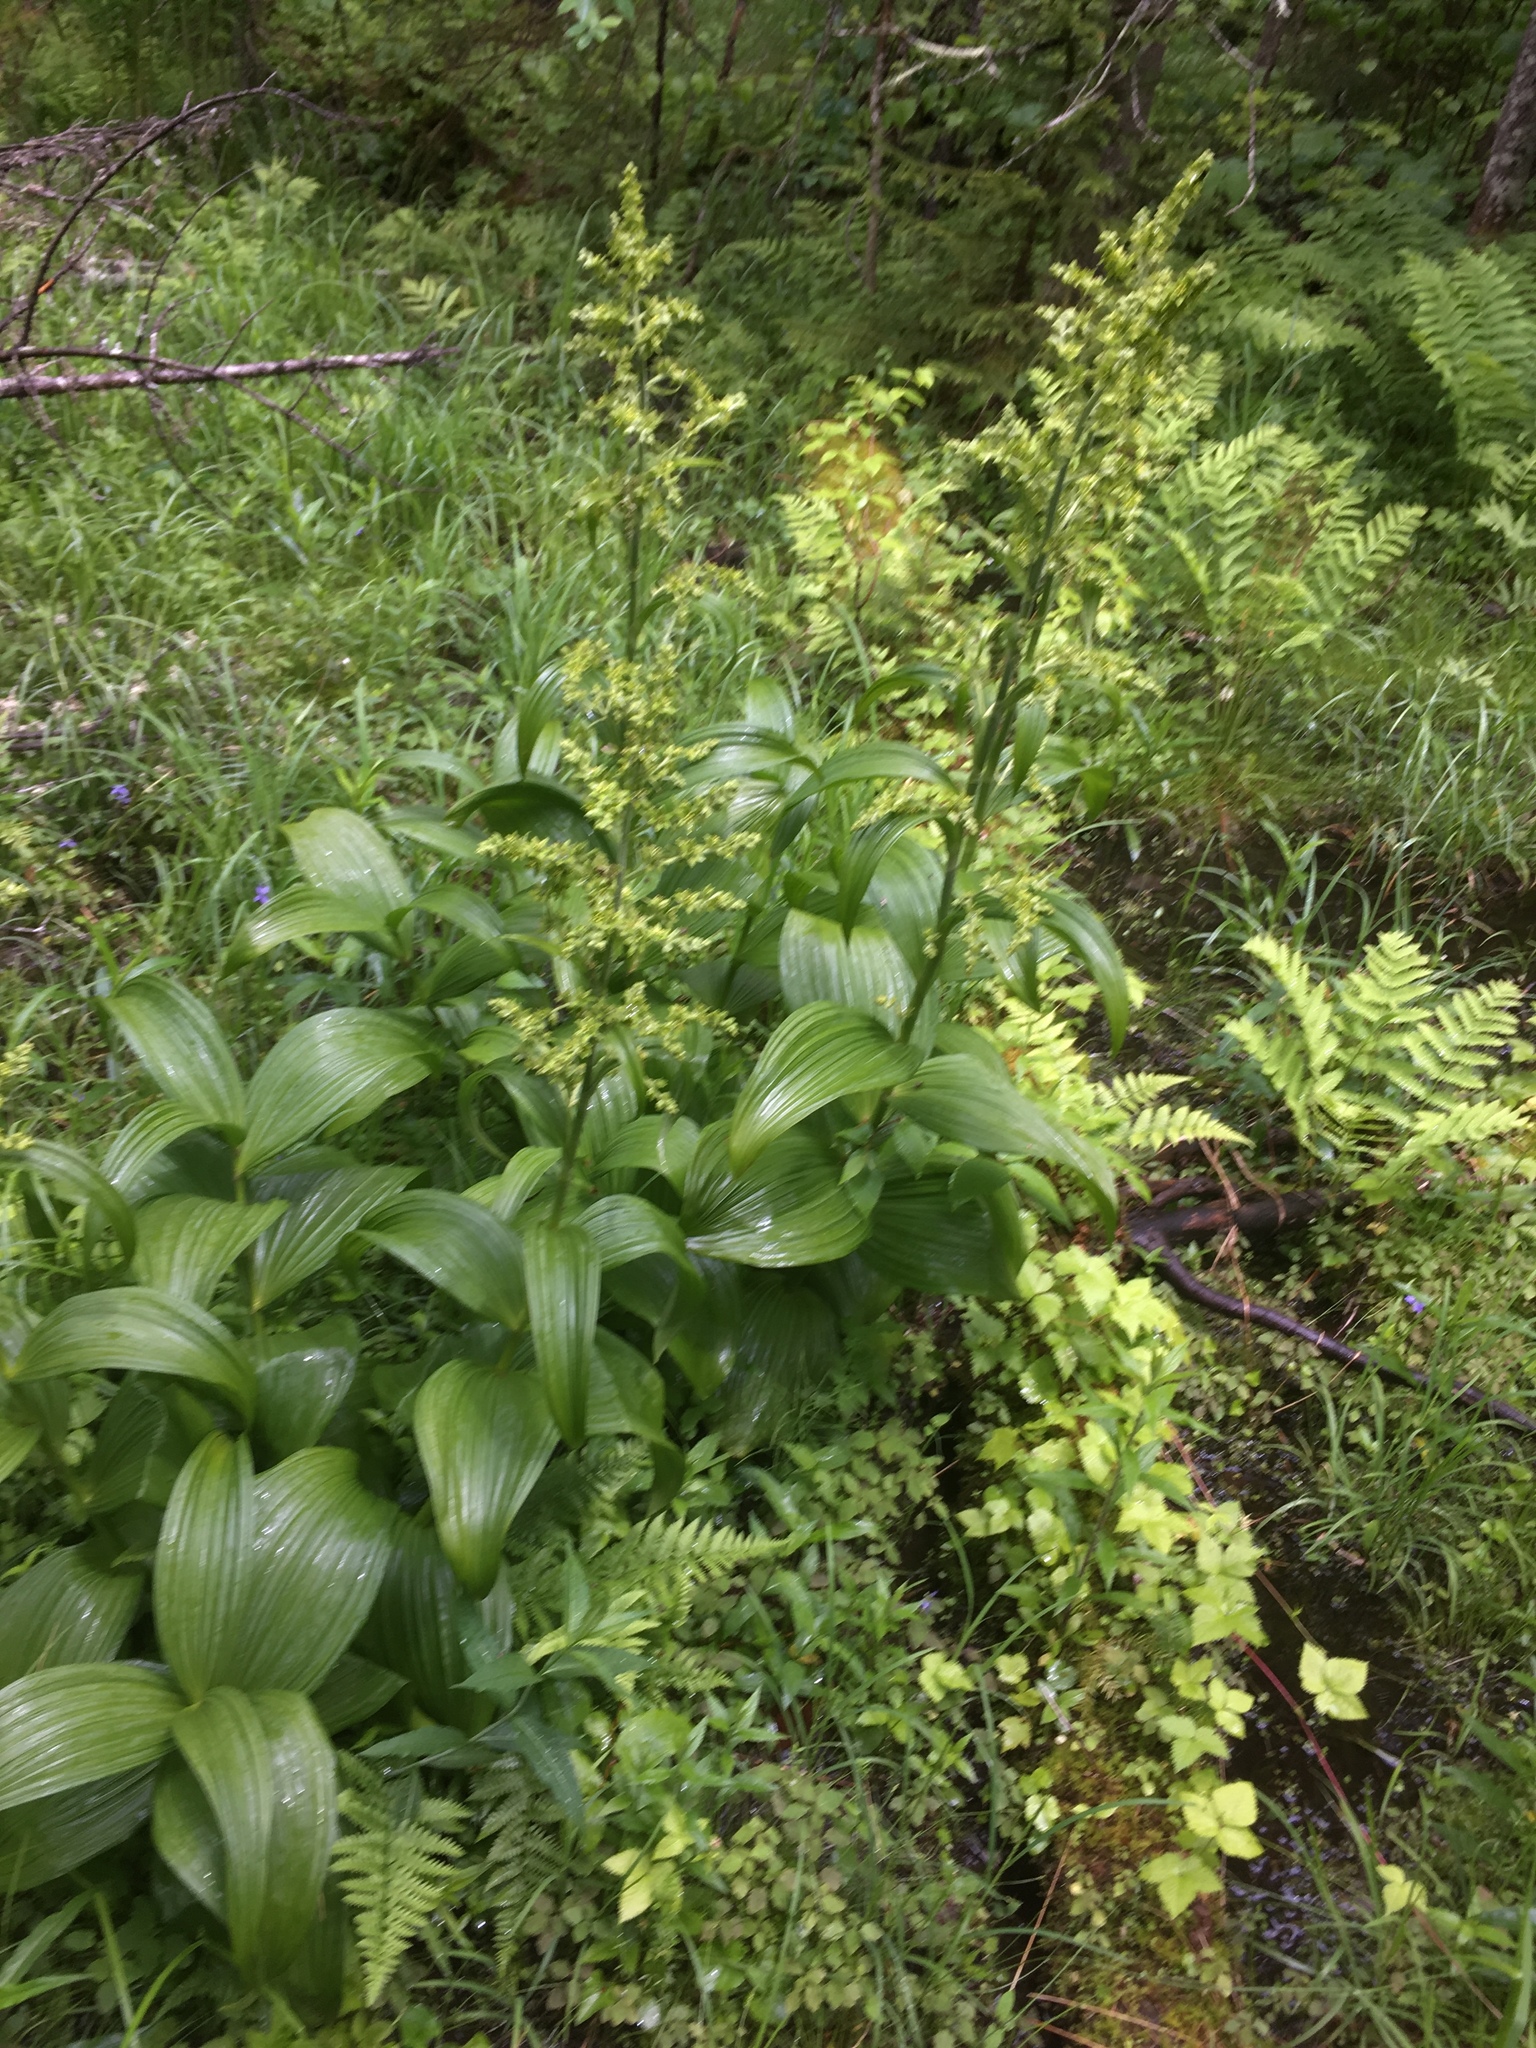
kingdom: Plantae
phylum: Tracheophyta
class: Liliopsida
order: Liliales
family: Melanthiaceae
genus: Veratrum
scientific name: Veratrum viride
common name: American false hellebore
